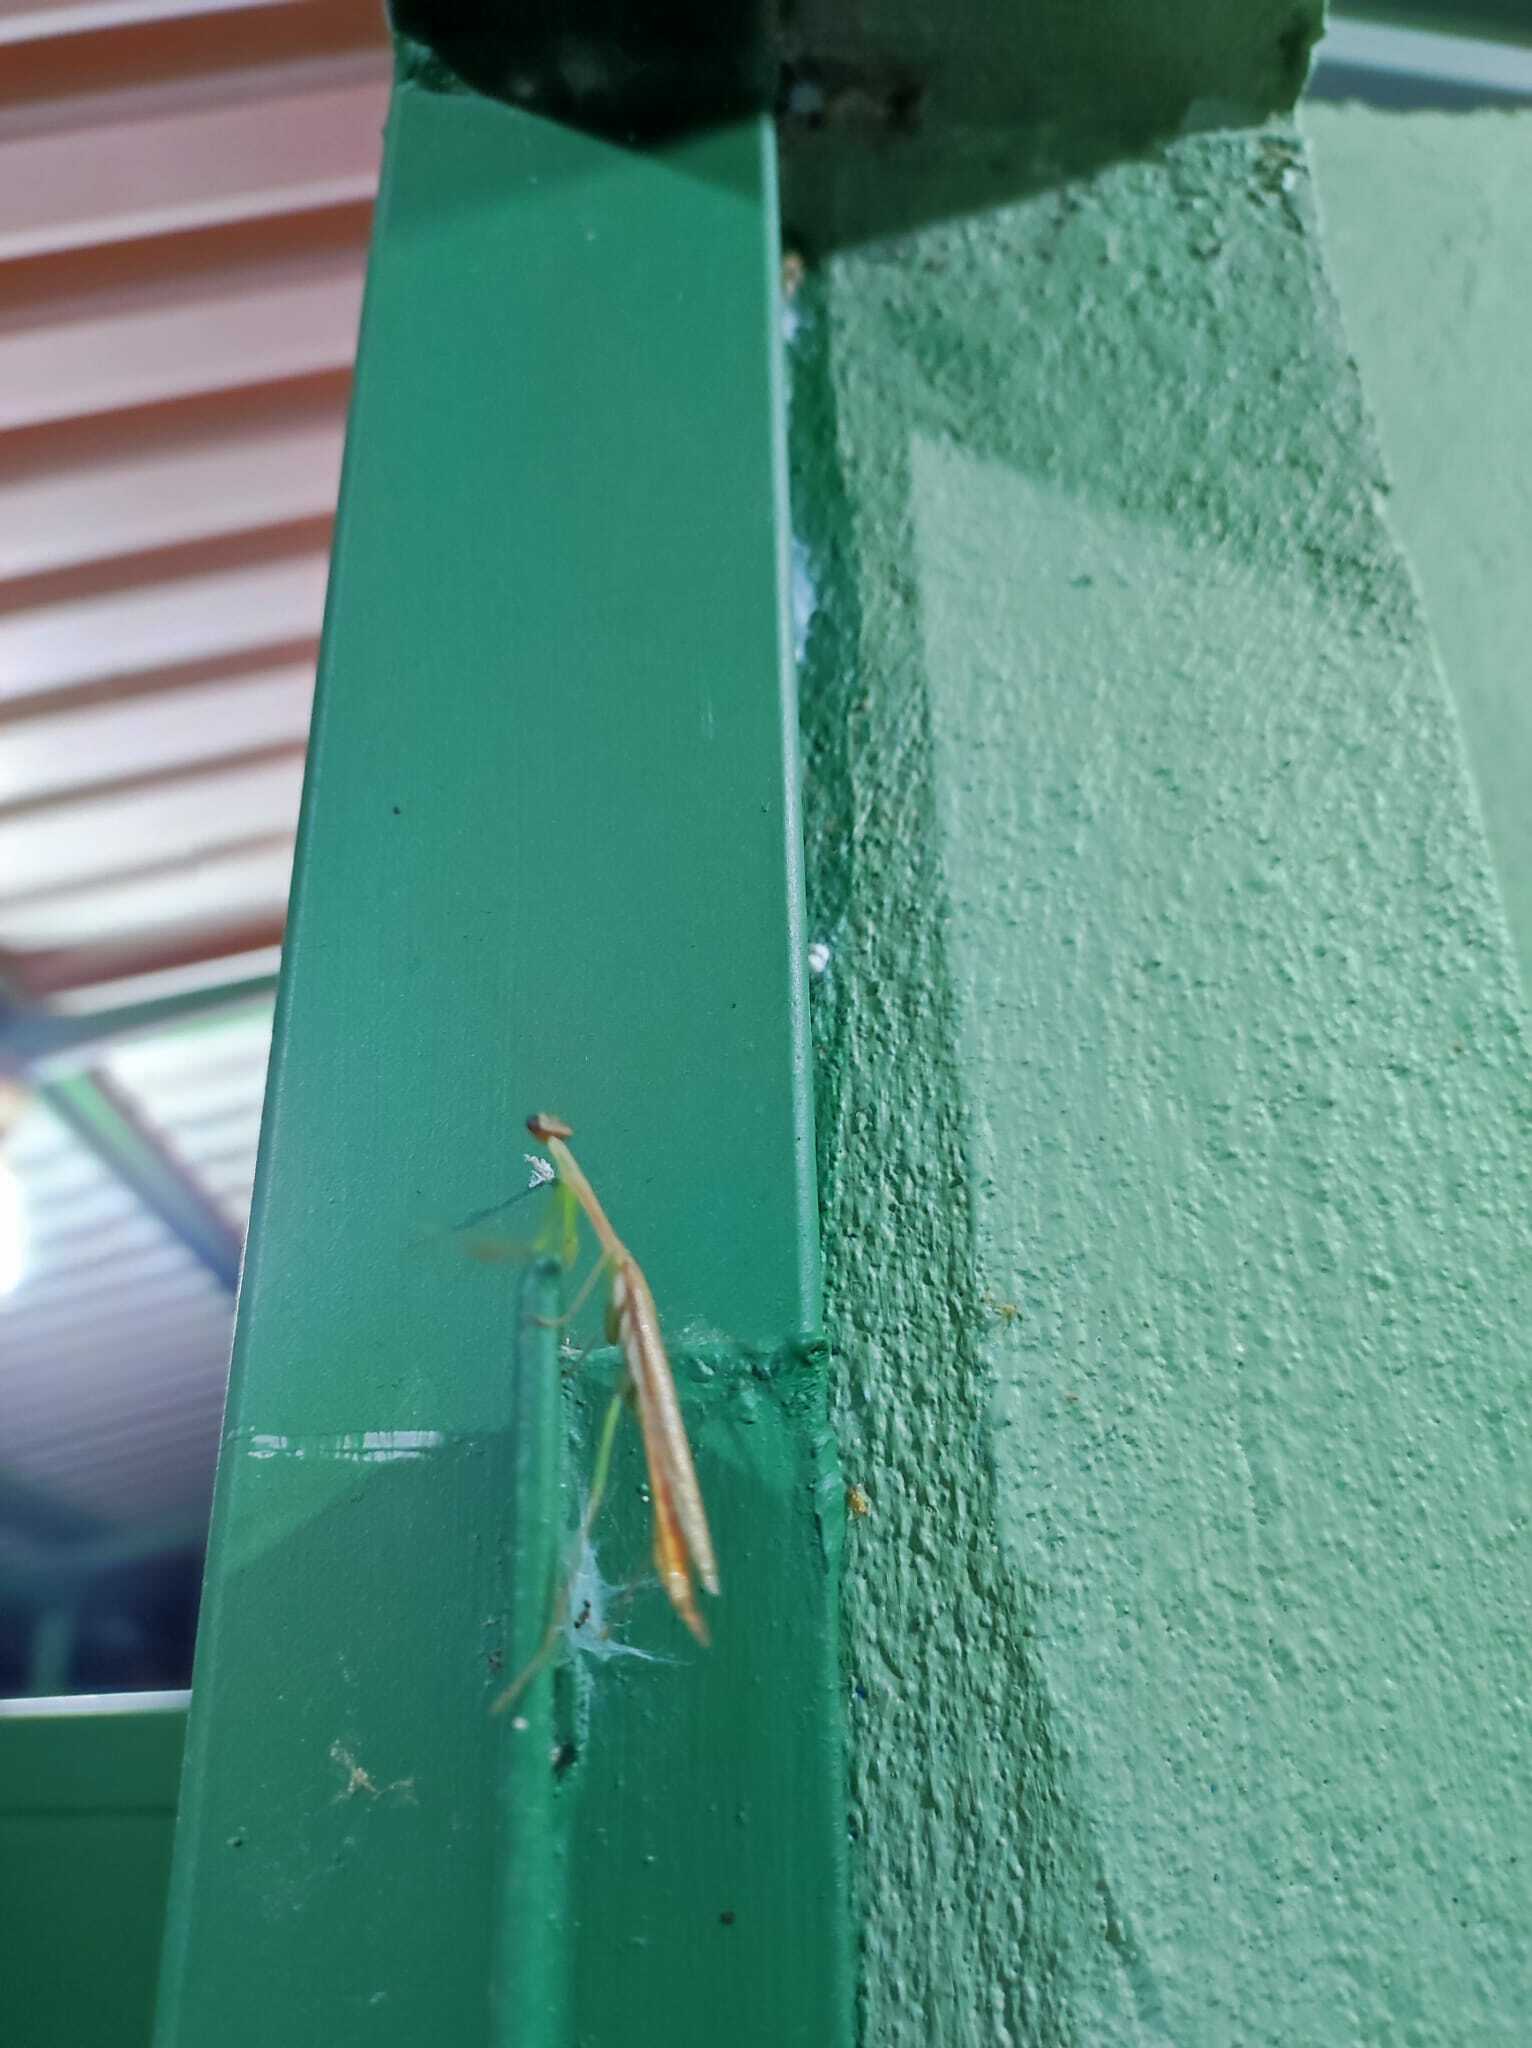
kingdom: Animalia
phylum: Arthropoda
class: Insecta
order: Mantodea
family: Mantidae
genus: Stagmomantis
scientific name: Stagmomantis nahua
